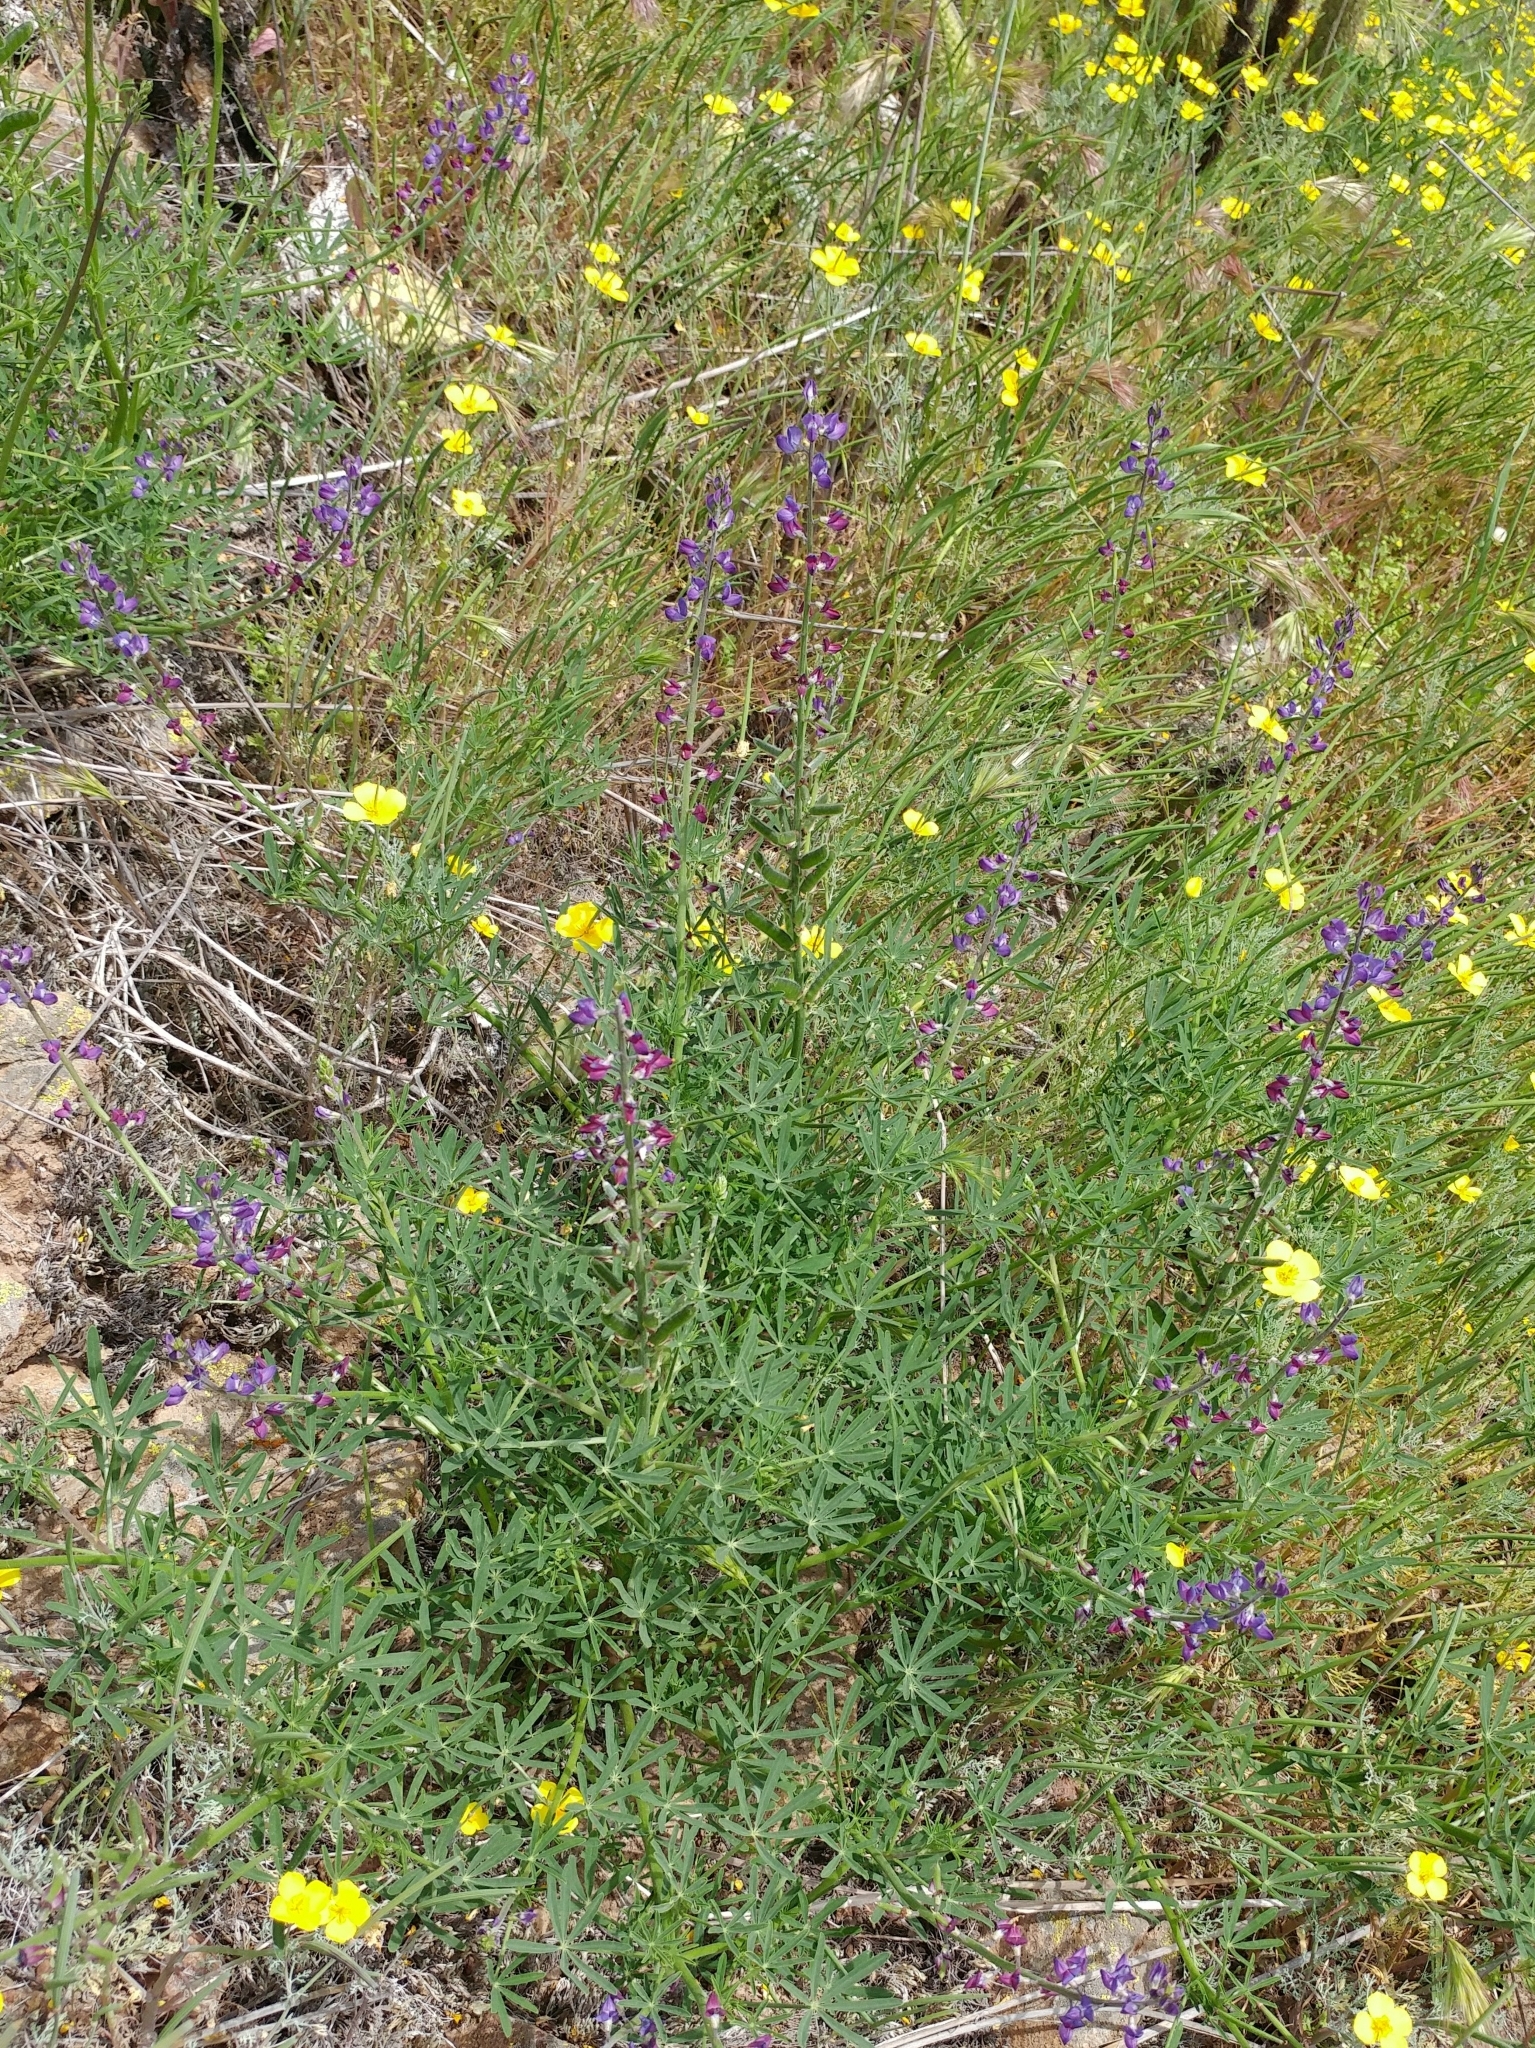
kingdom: Plantae
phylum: Tracheophyta
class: Magnoliopsida
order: Fabales
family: Fabaceae
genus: Lupinus
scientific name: Lupinus truncatus
